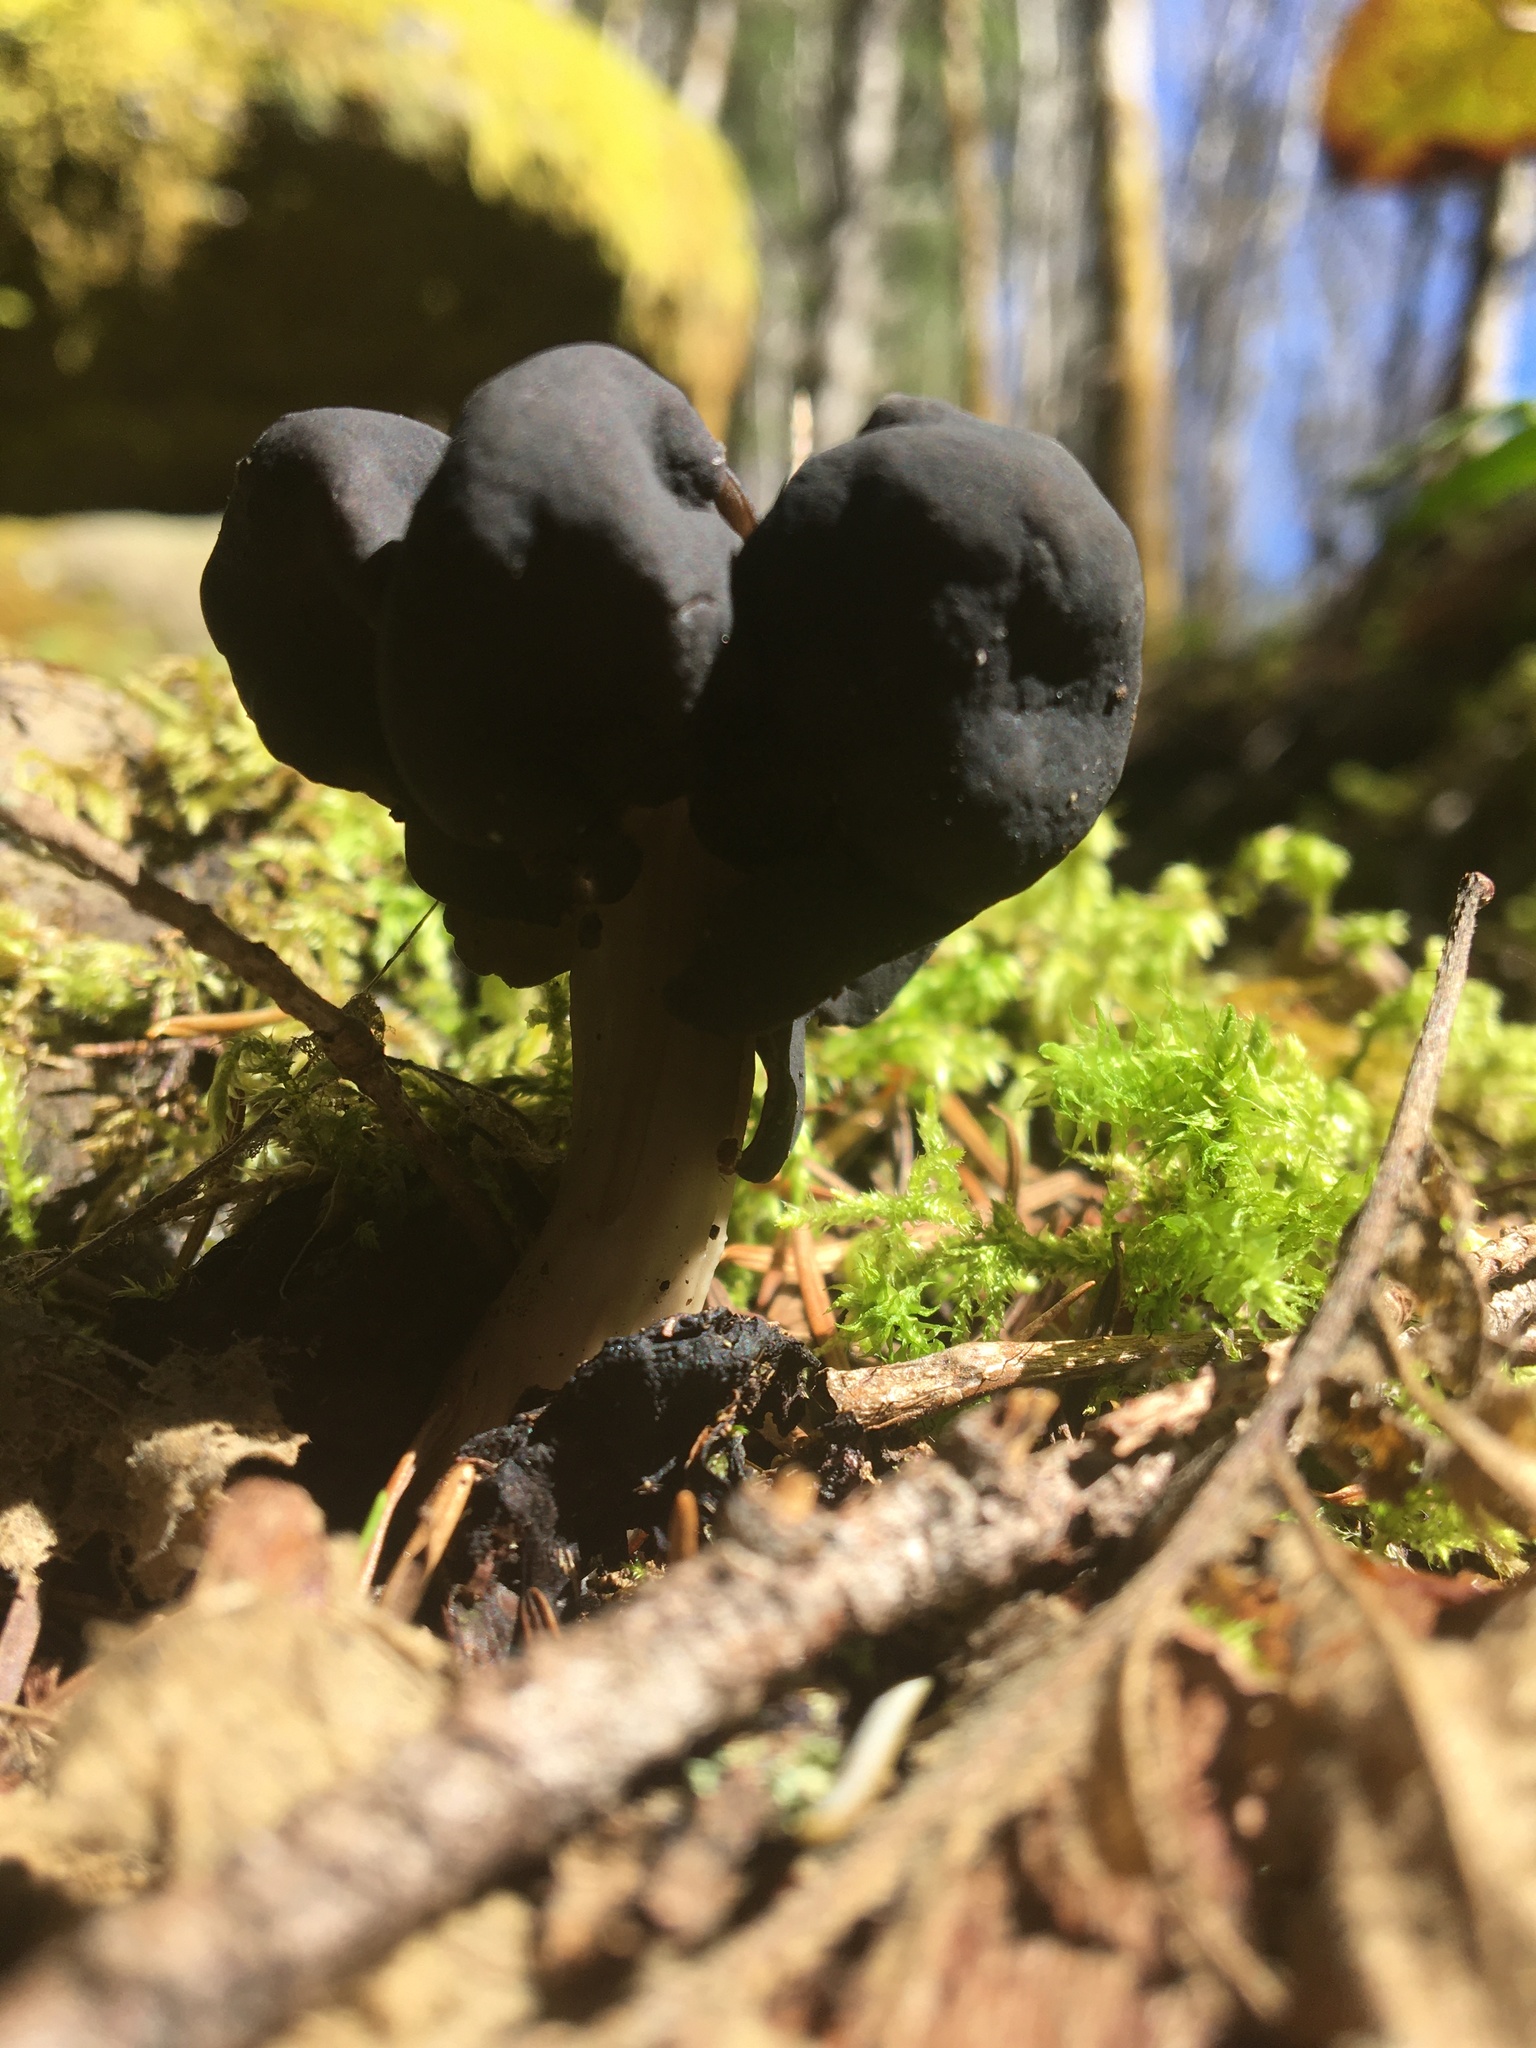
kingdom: Fungi
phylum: Ascomycota
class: Pezizomycetes
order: Pezizales
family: Helvellaceae
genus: Helvella
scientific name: Helvella vespertina
